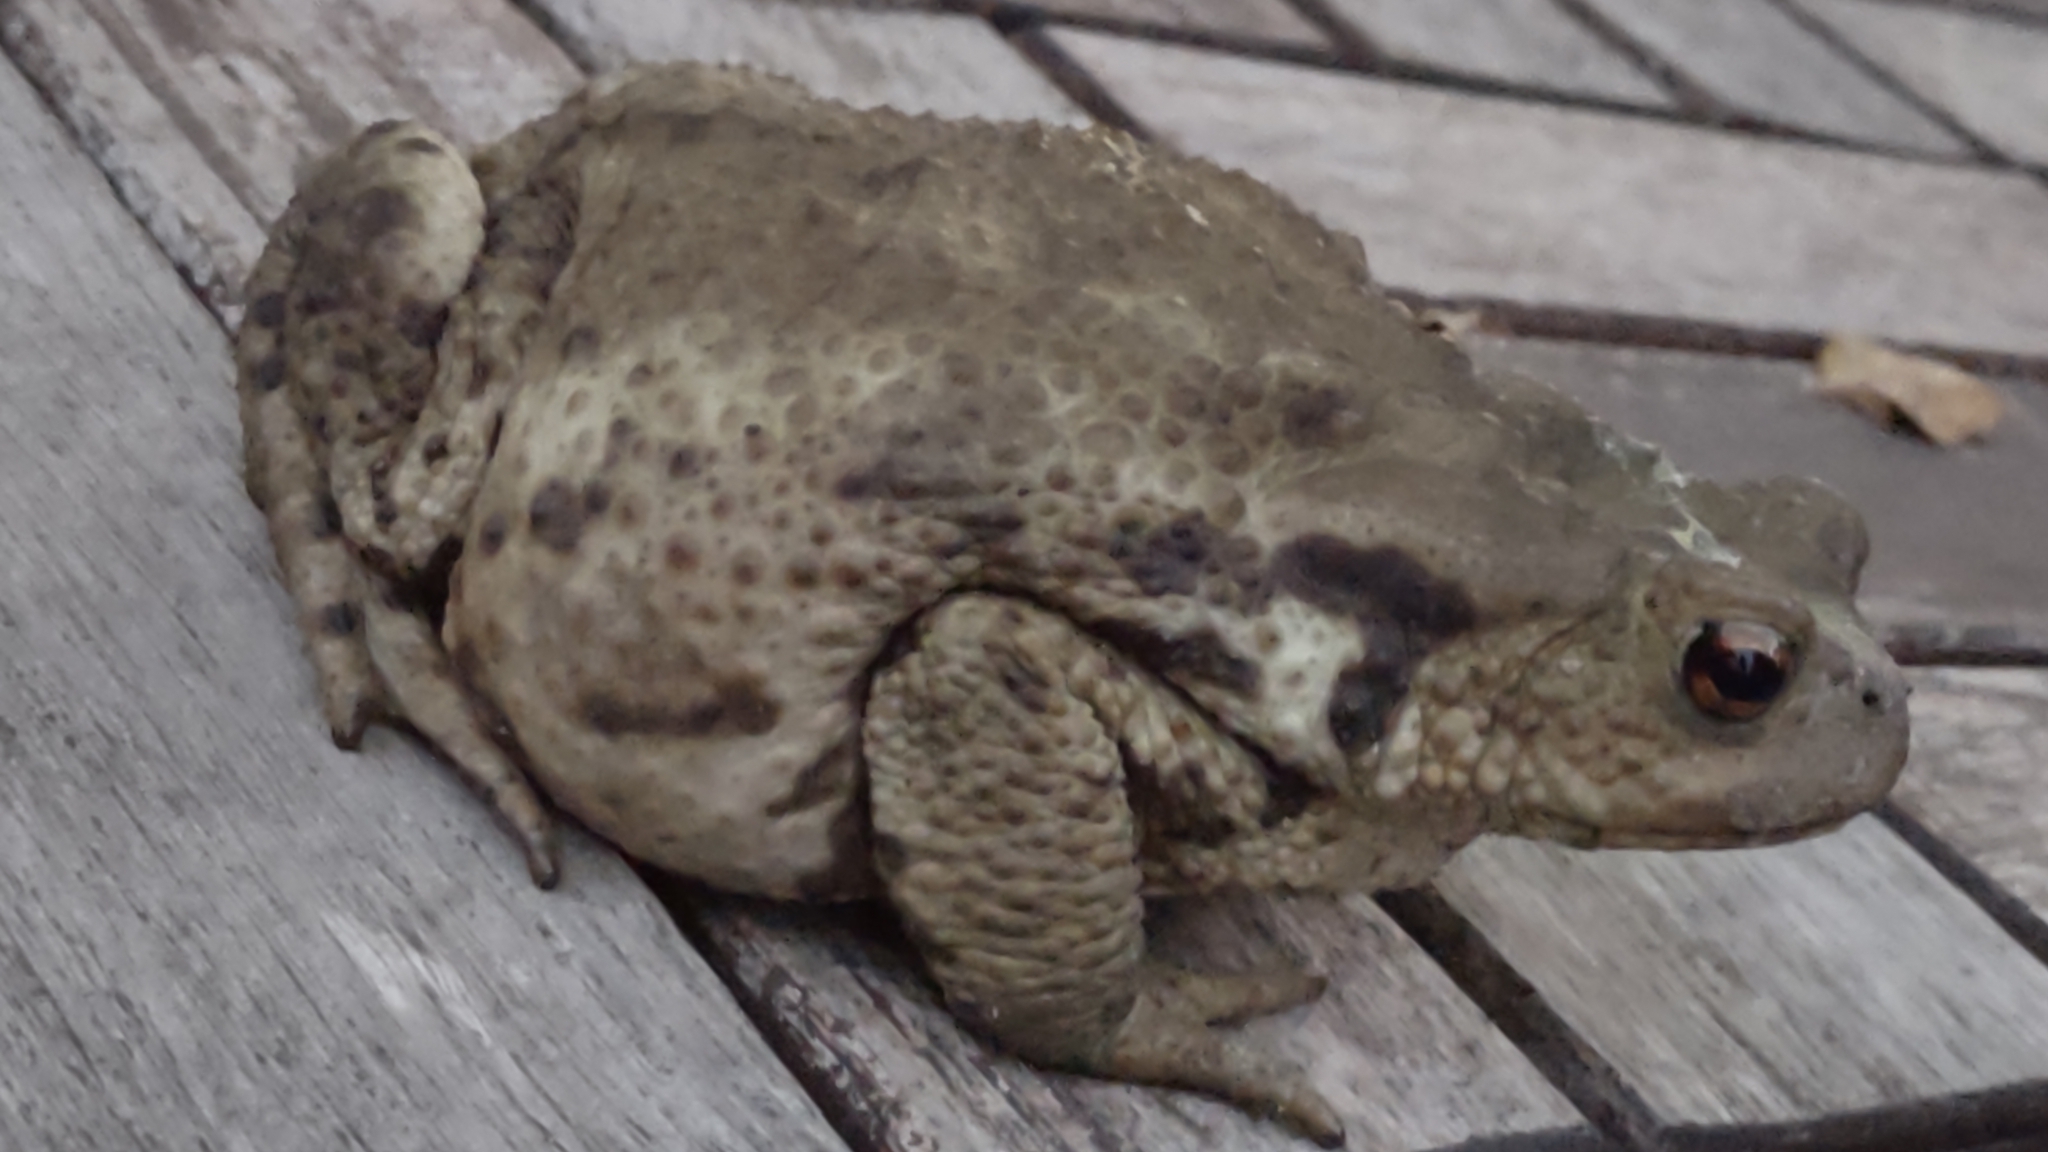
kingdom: Animalia
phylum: Chordata
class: Amphibia
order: Anura
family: Bufonidae
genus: Bufo
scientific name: Bufo bufo
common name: Common toad
